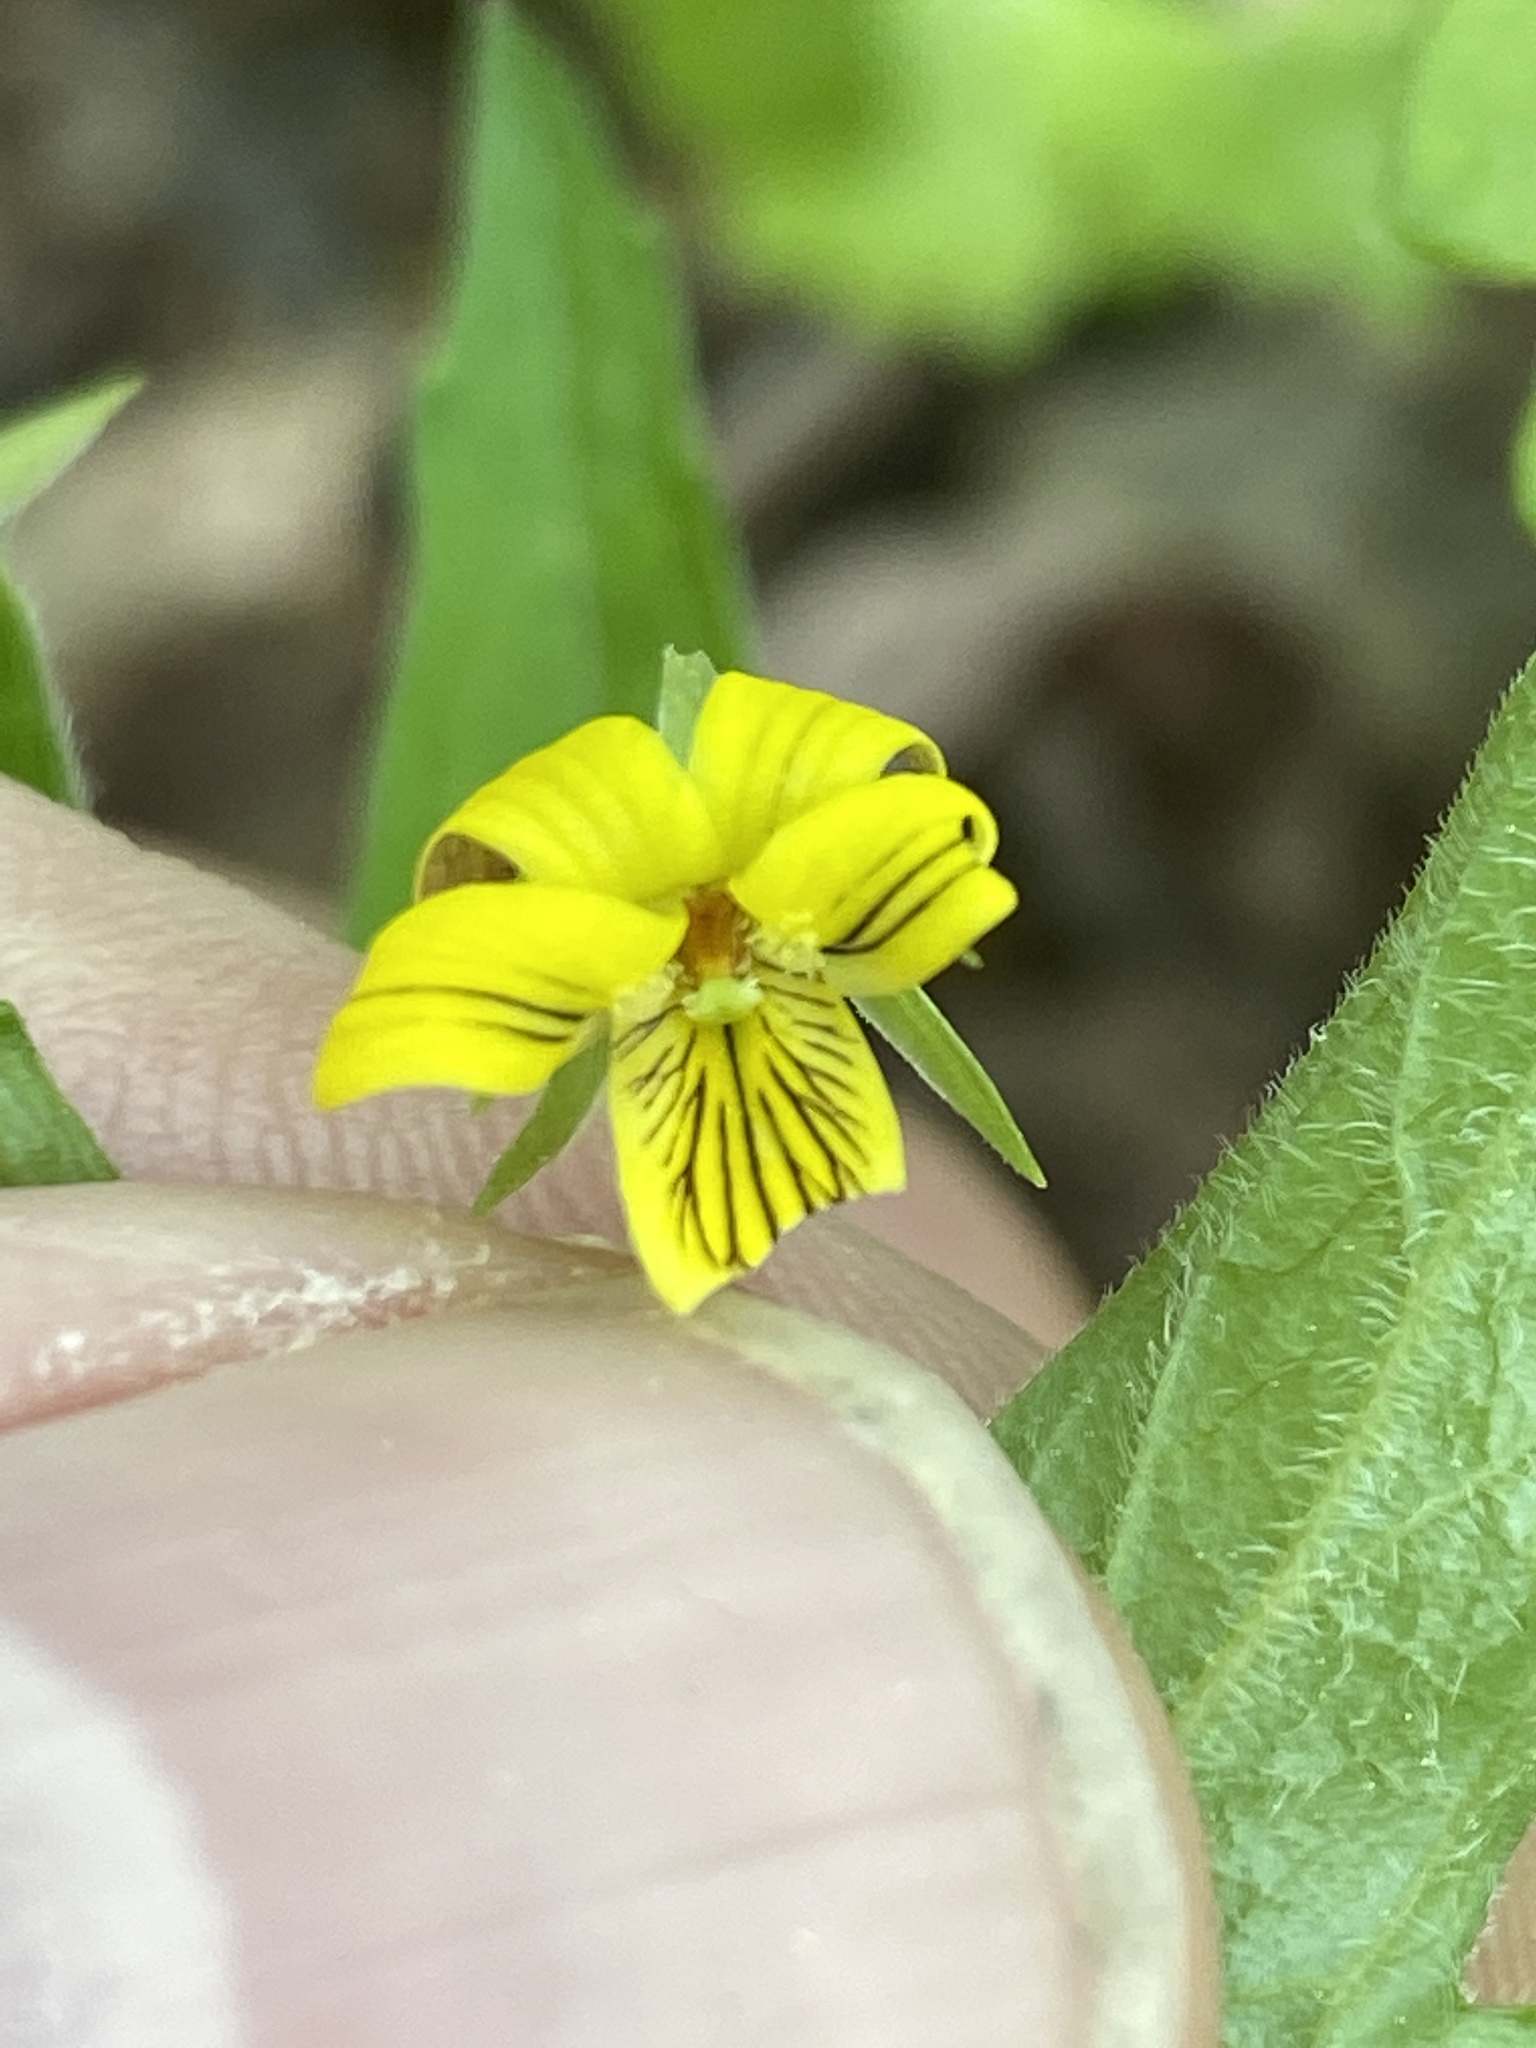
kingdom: Plantae
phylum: Tracheophyta
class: Magnoliopsida
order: Malpighiales
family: Violaceae
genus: Viola
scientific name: Viola tripartita
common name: Three-part violet
